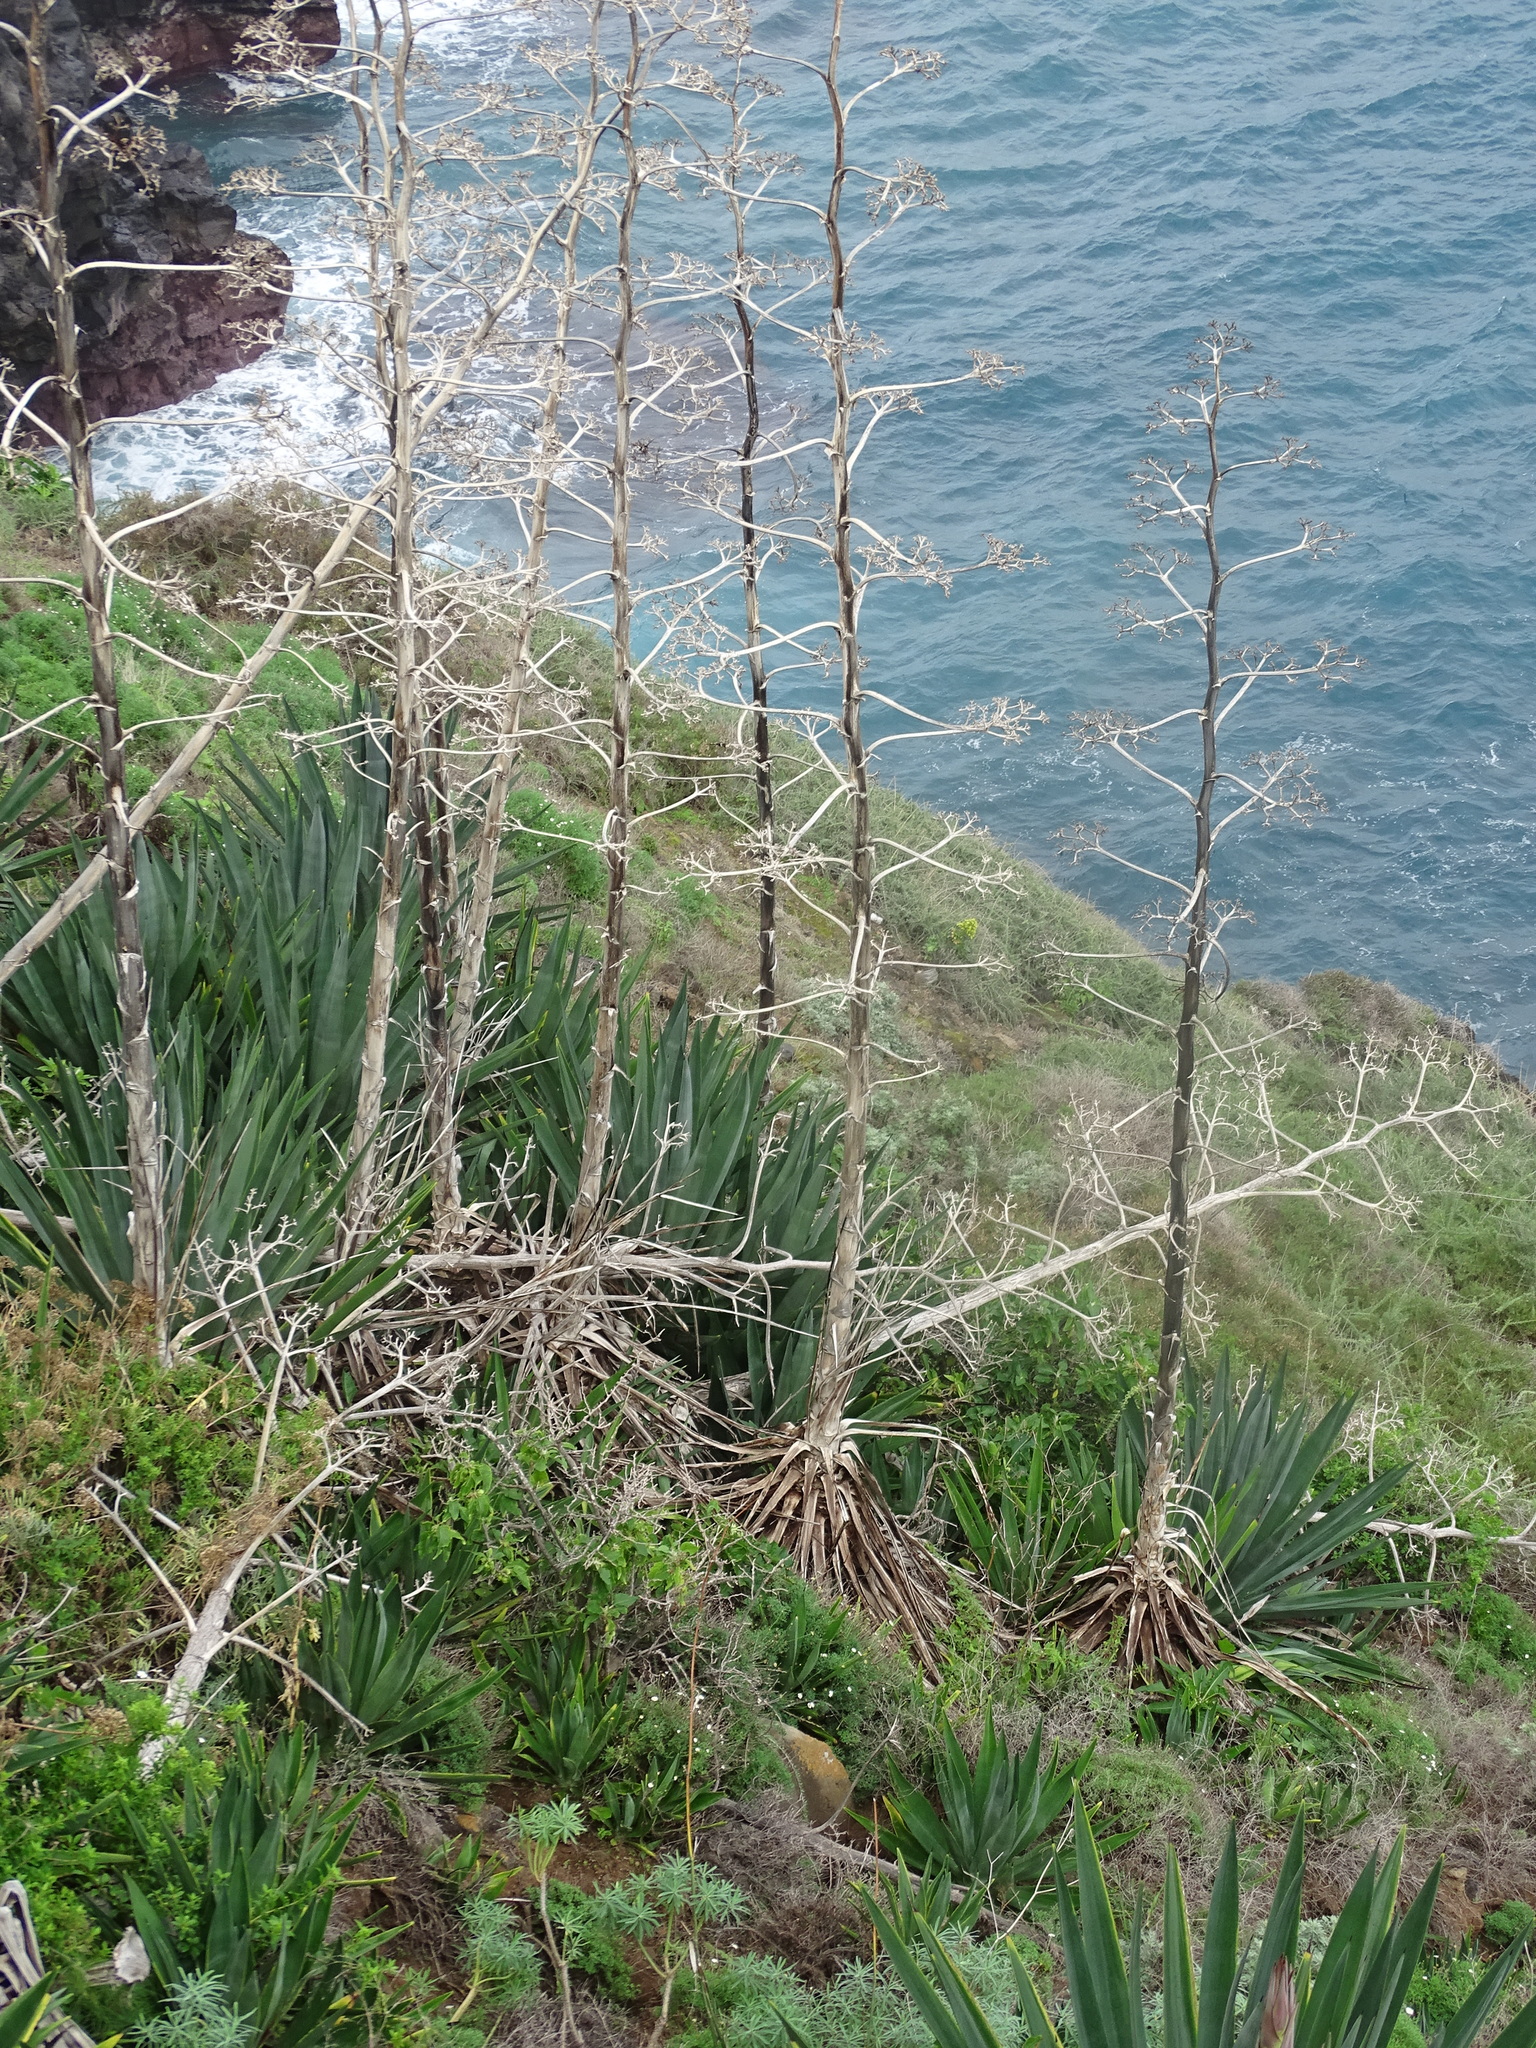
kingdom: Plantae
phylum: Tracheophyta
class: Liliopsida
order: Asparagales
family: Asparagaceae
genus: Agave
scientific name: Agave sisalana
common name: Sisal hemp
